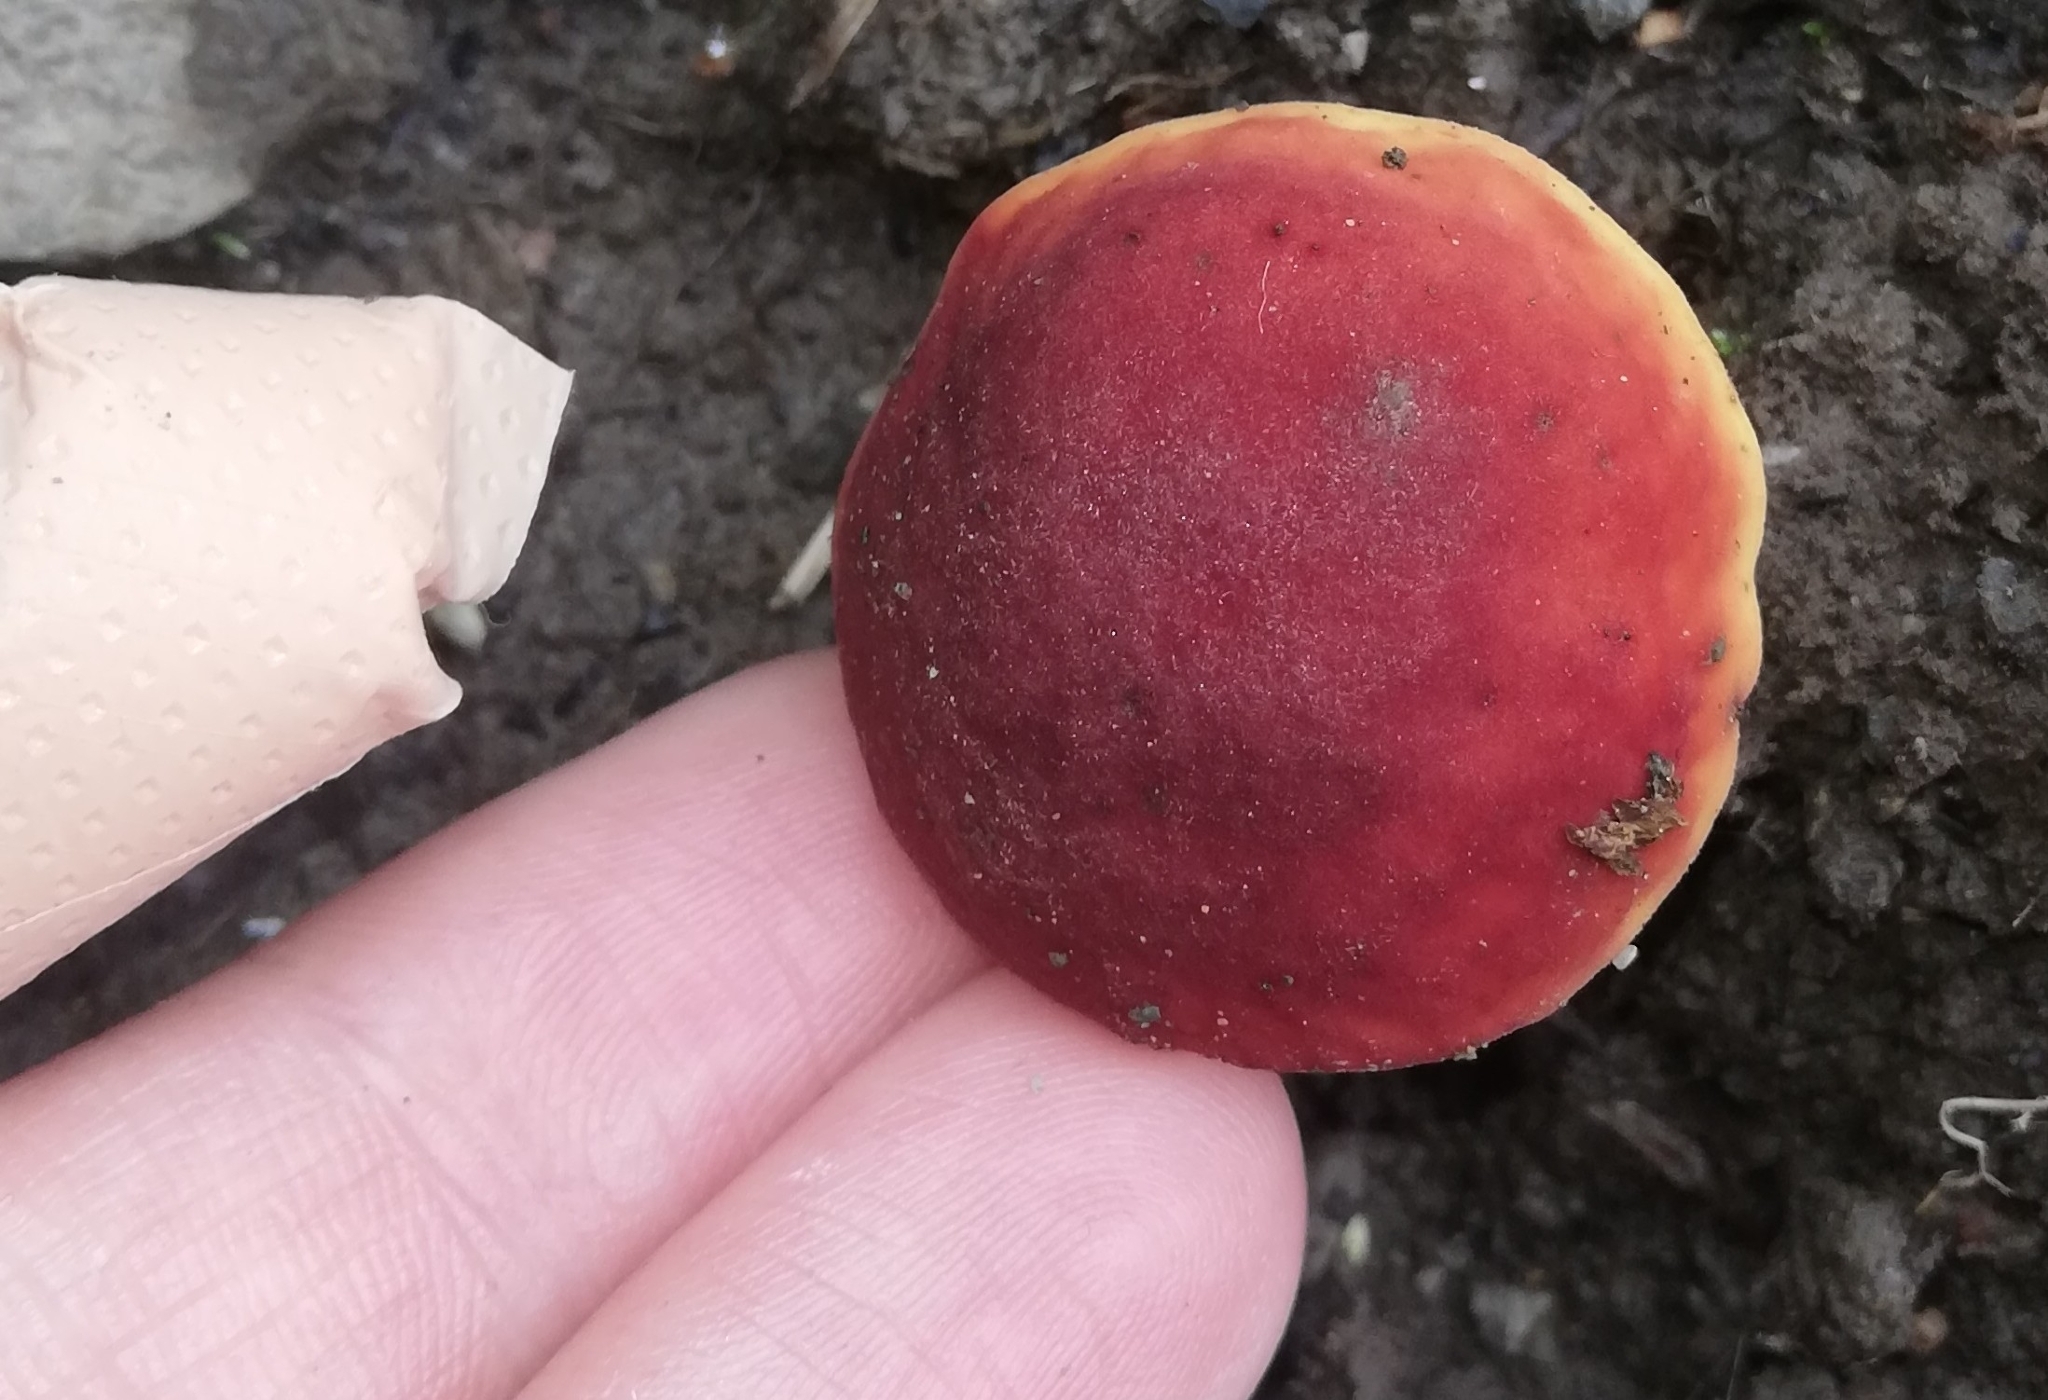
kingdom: Fungi
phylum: Basidiomycota
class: Agaricomycetes
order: Boletales
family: Boletaceae
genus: Hortiboletus
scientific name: Hortiboletus rubellus
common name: Ruby bolete
